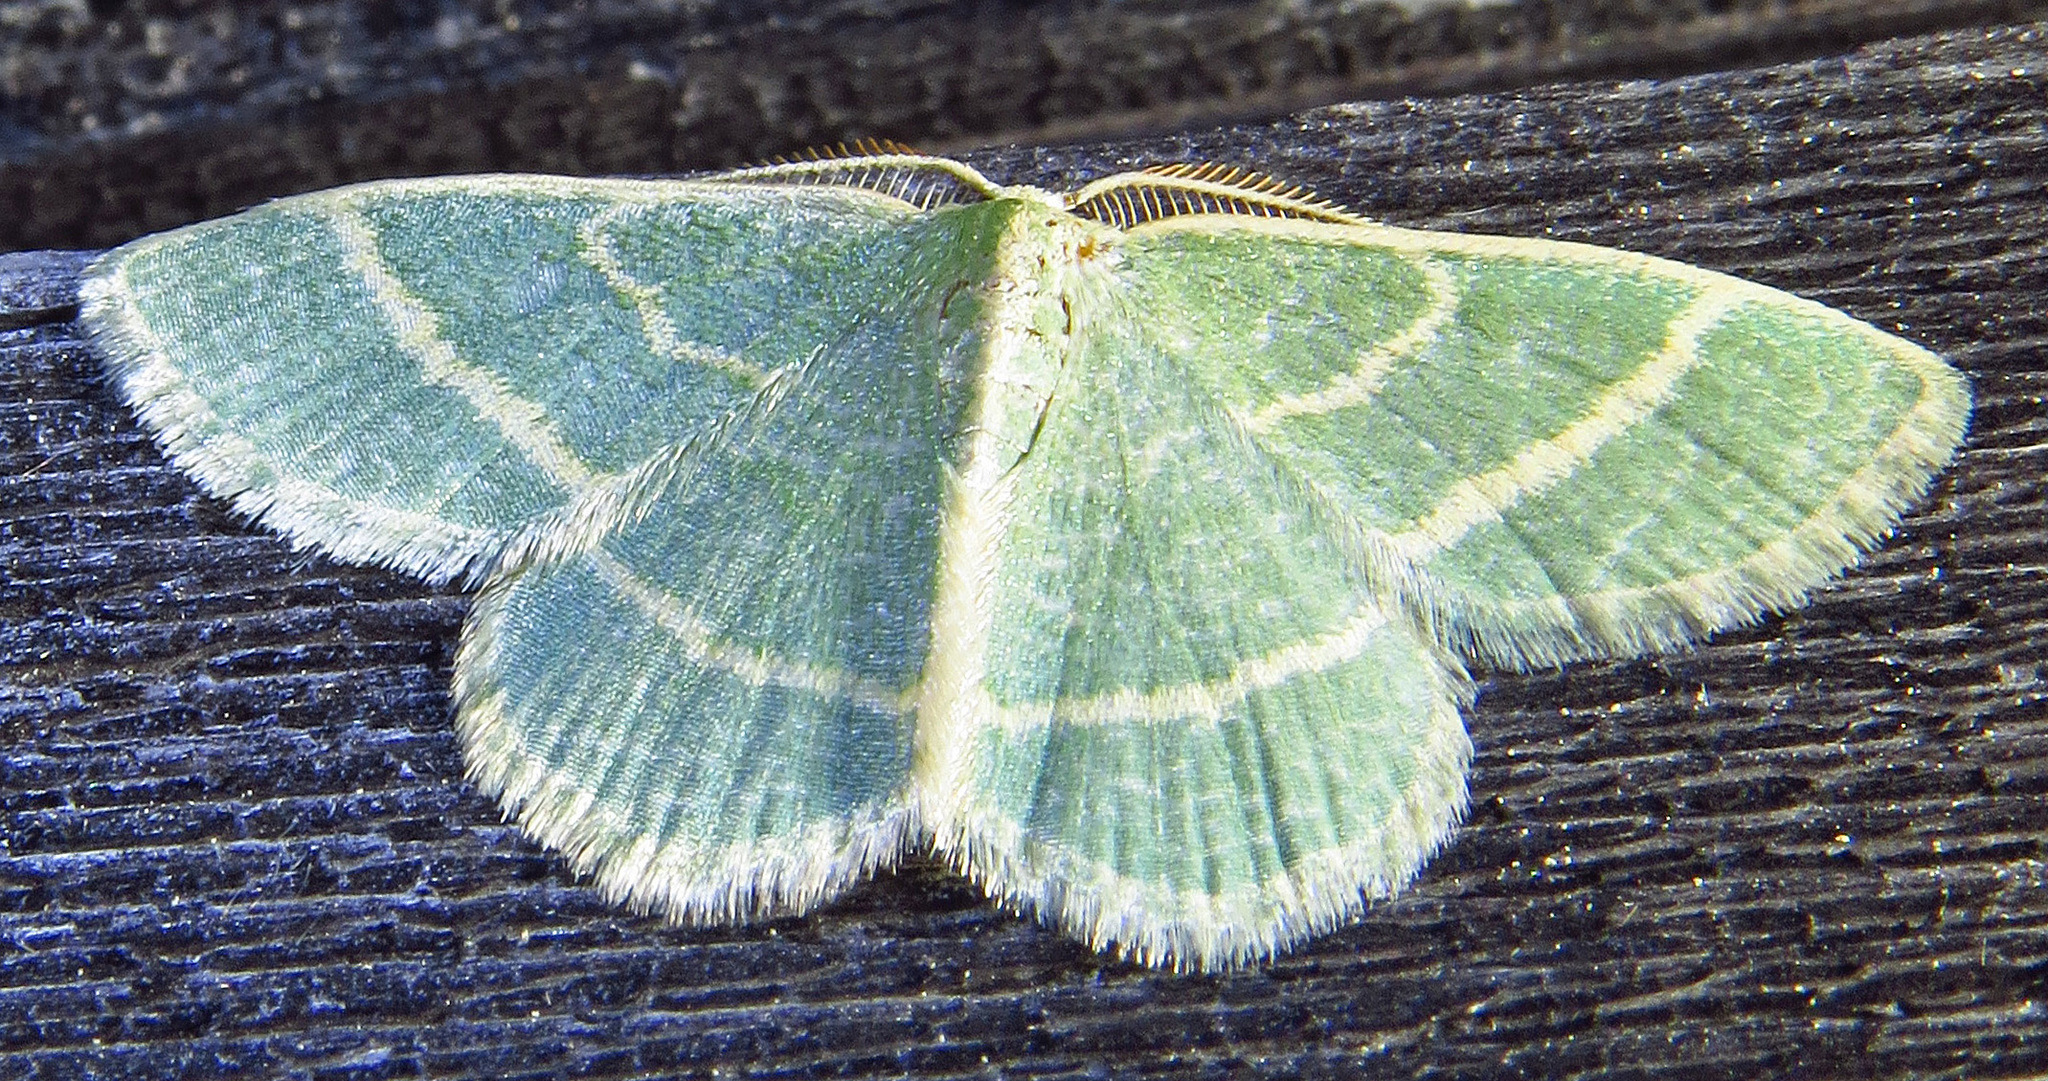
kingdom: Animalia
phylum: Arthropoda
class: Insecta
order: Lepidoptera
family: Geometridae
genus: Chlorochlamys
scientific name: Chlorochlamys chloroleucaria
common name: Blackberry looper
